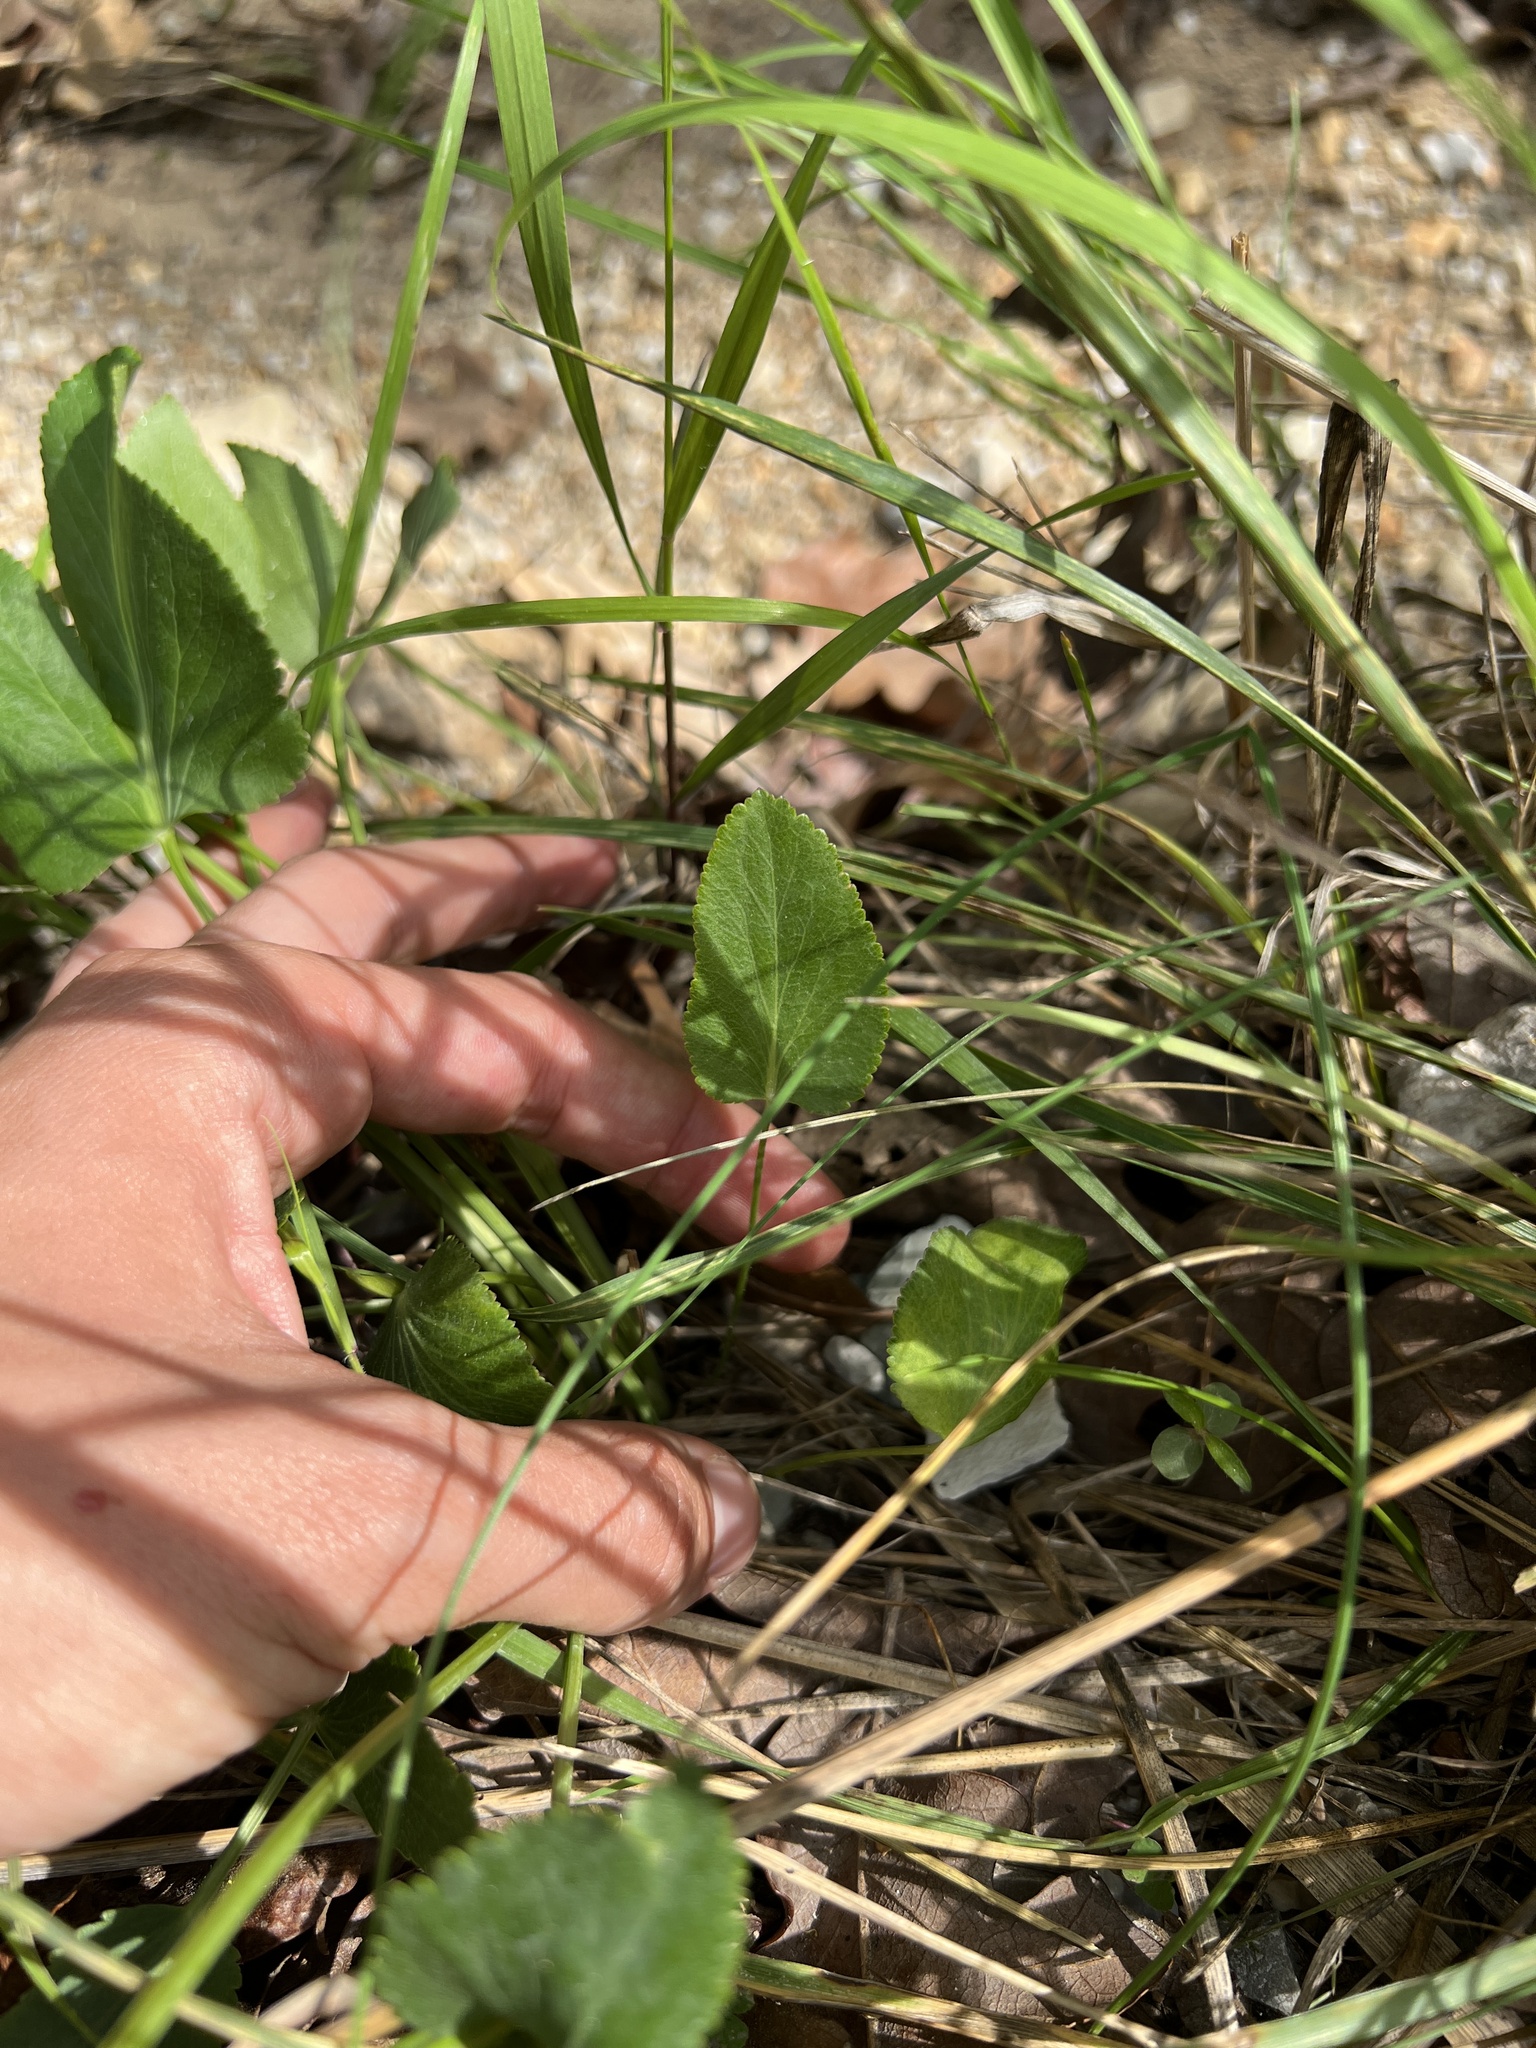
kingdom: Plantae
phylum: Tracheophyta
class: Magnoliopsida
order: Apiales
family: Apiaceae
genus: Zizia
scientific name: Zizia aptera
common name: Heart-leaved alexanders
